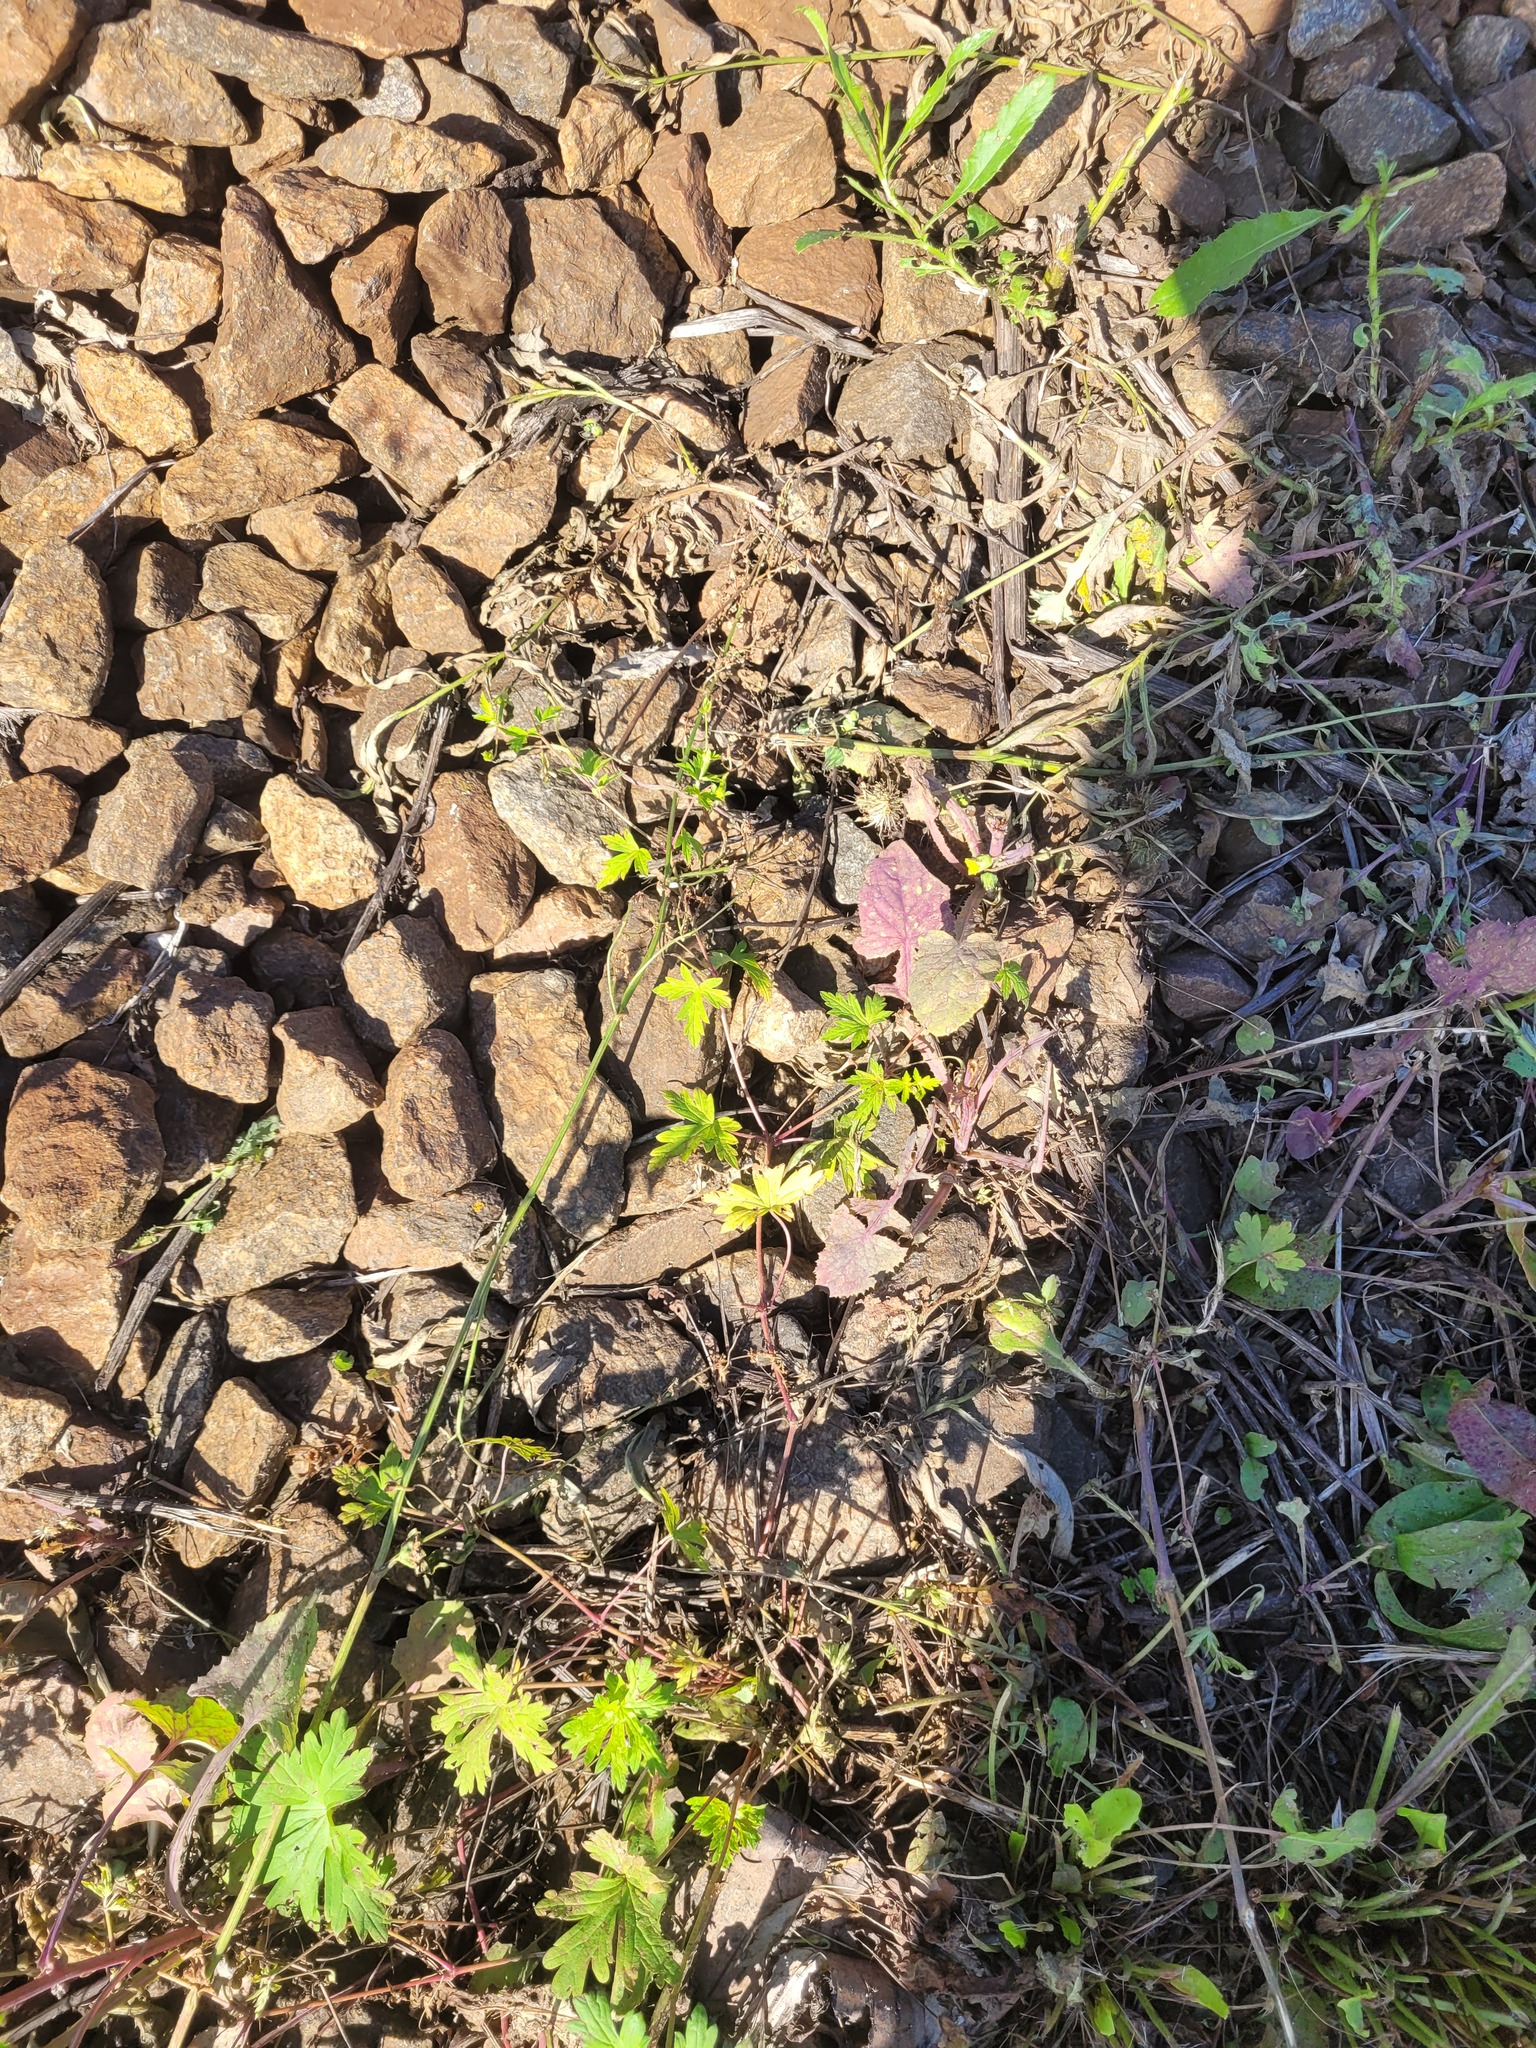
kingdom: Plantae
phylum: Tracheophyta
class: Magnoliopsida
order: Geraniales
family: Geraniaceae
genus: Geranium
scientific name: Geranium sibiricum
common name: Siberian crane's-bill
